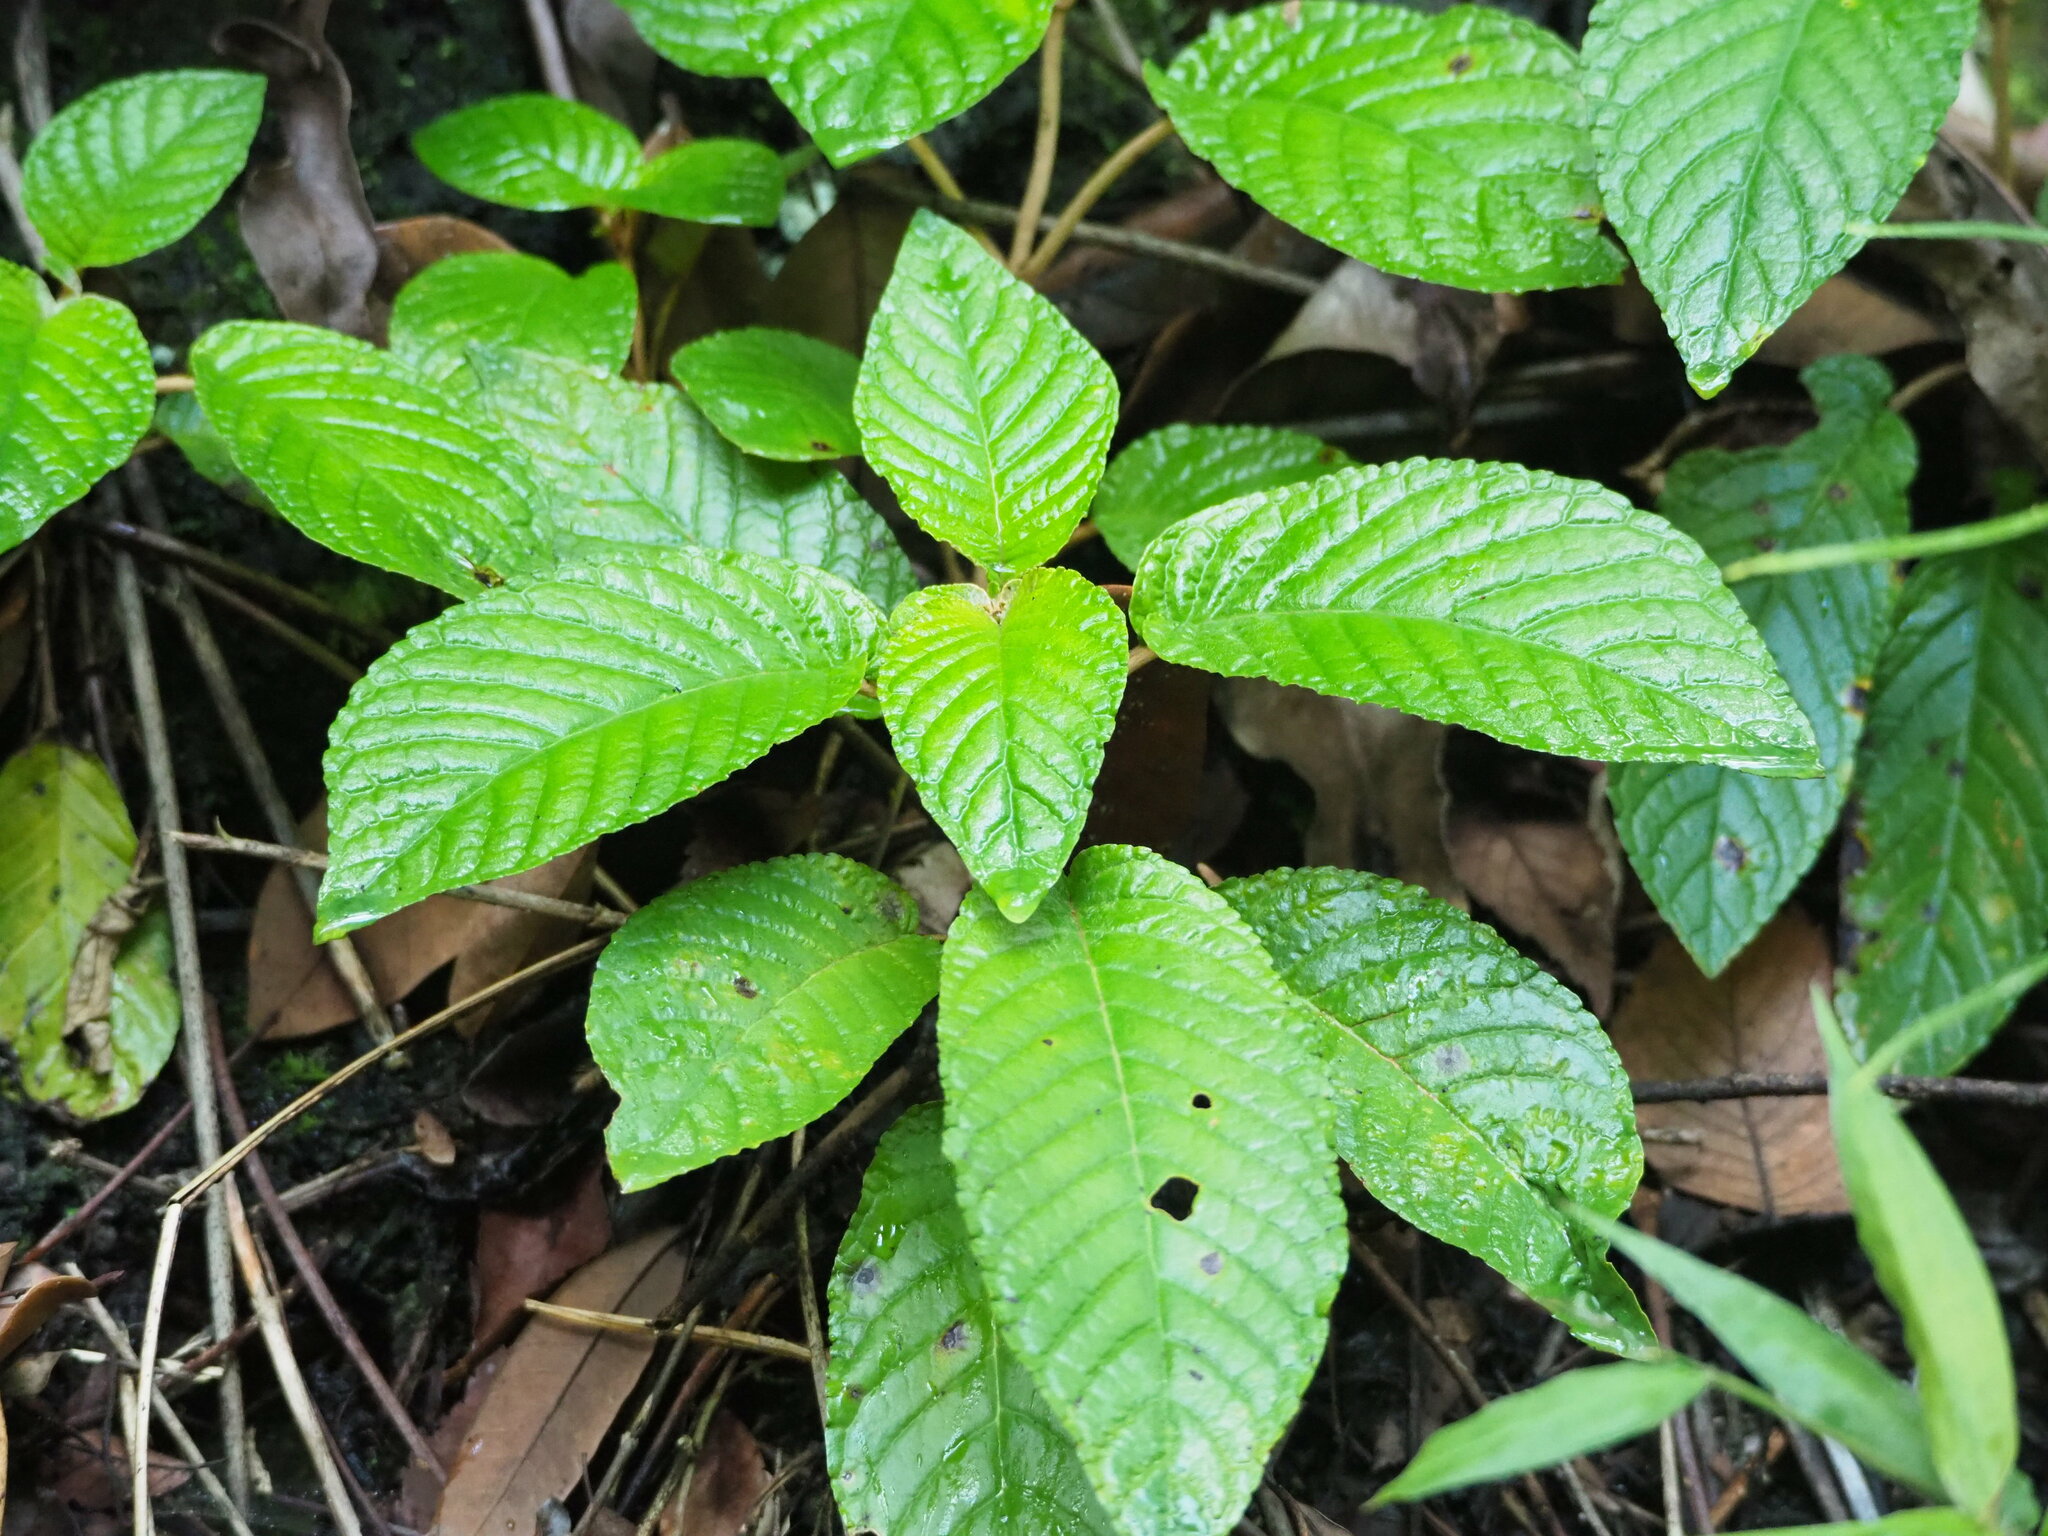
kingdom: Plantae
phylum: Tracheophyta
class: Magnoliopsida
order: Lamiales
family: Gesneriaceae
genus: Paraboea
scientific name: Paraboea swinhoei
